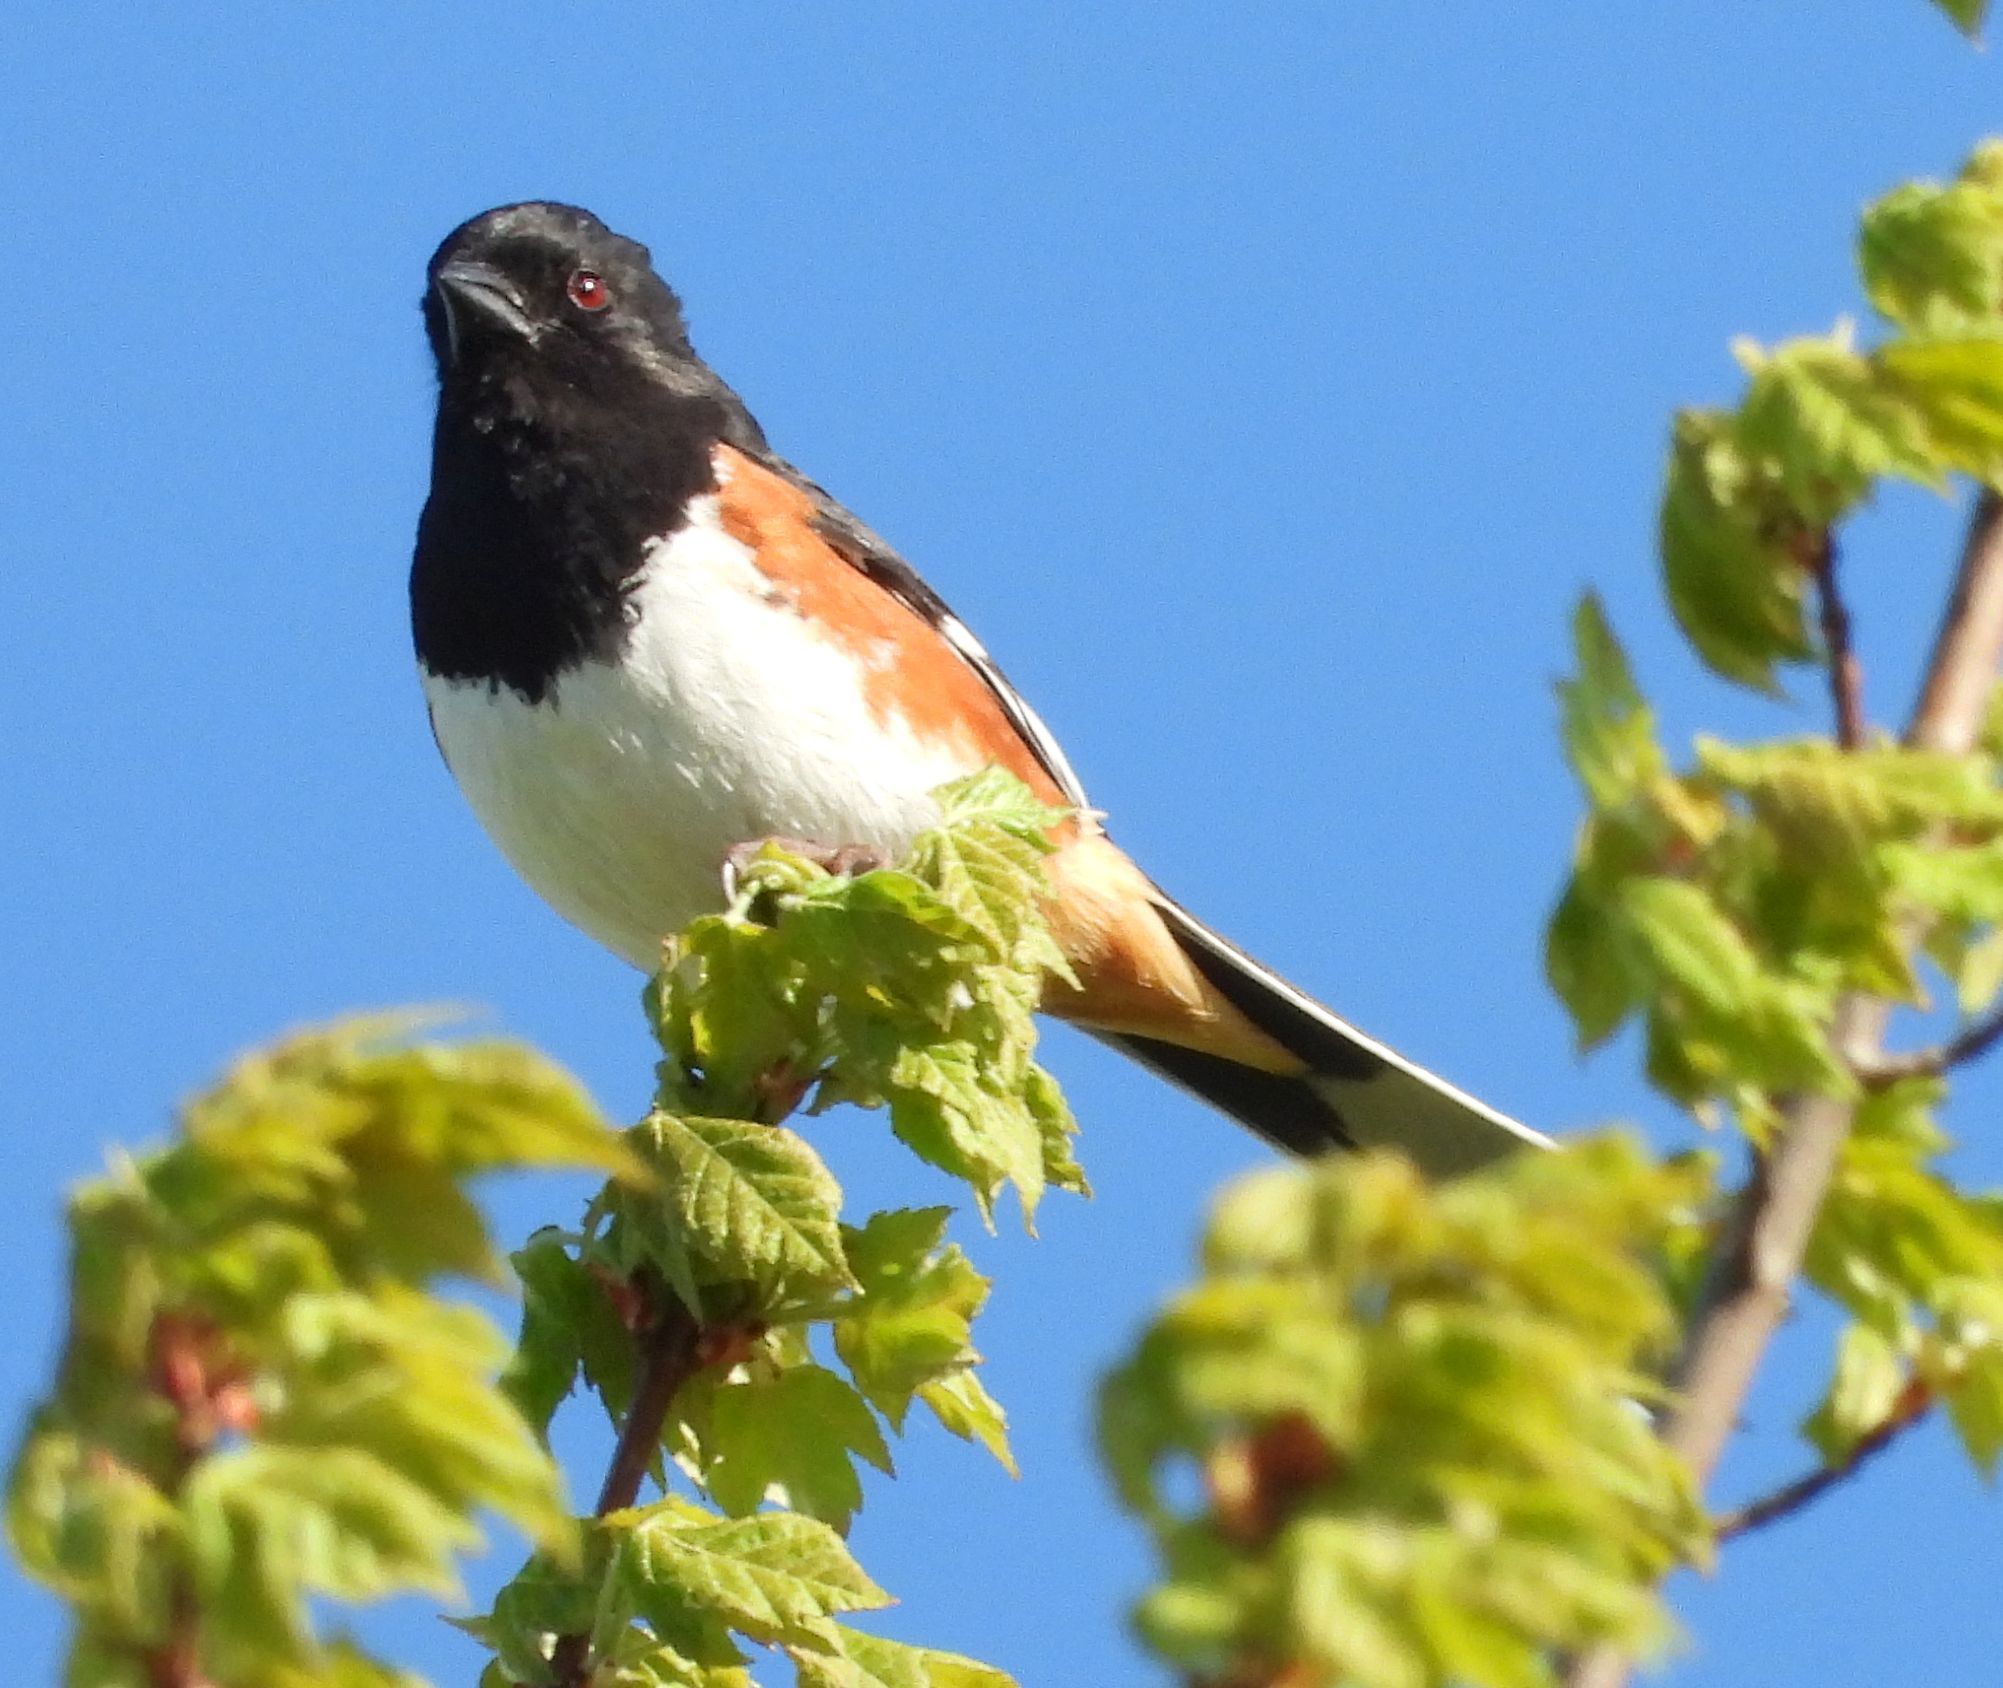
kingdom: Animalia
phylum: Chordata
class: Aves
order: Passeriformes
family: Passerellidae
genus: Pipilo
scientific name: Pipilo erythrophthalmus
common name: Eastern towhee
